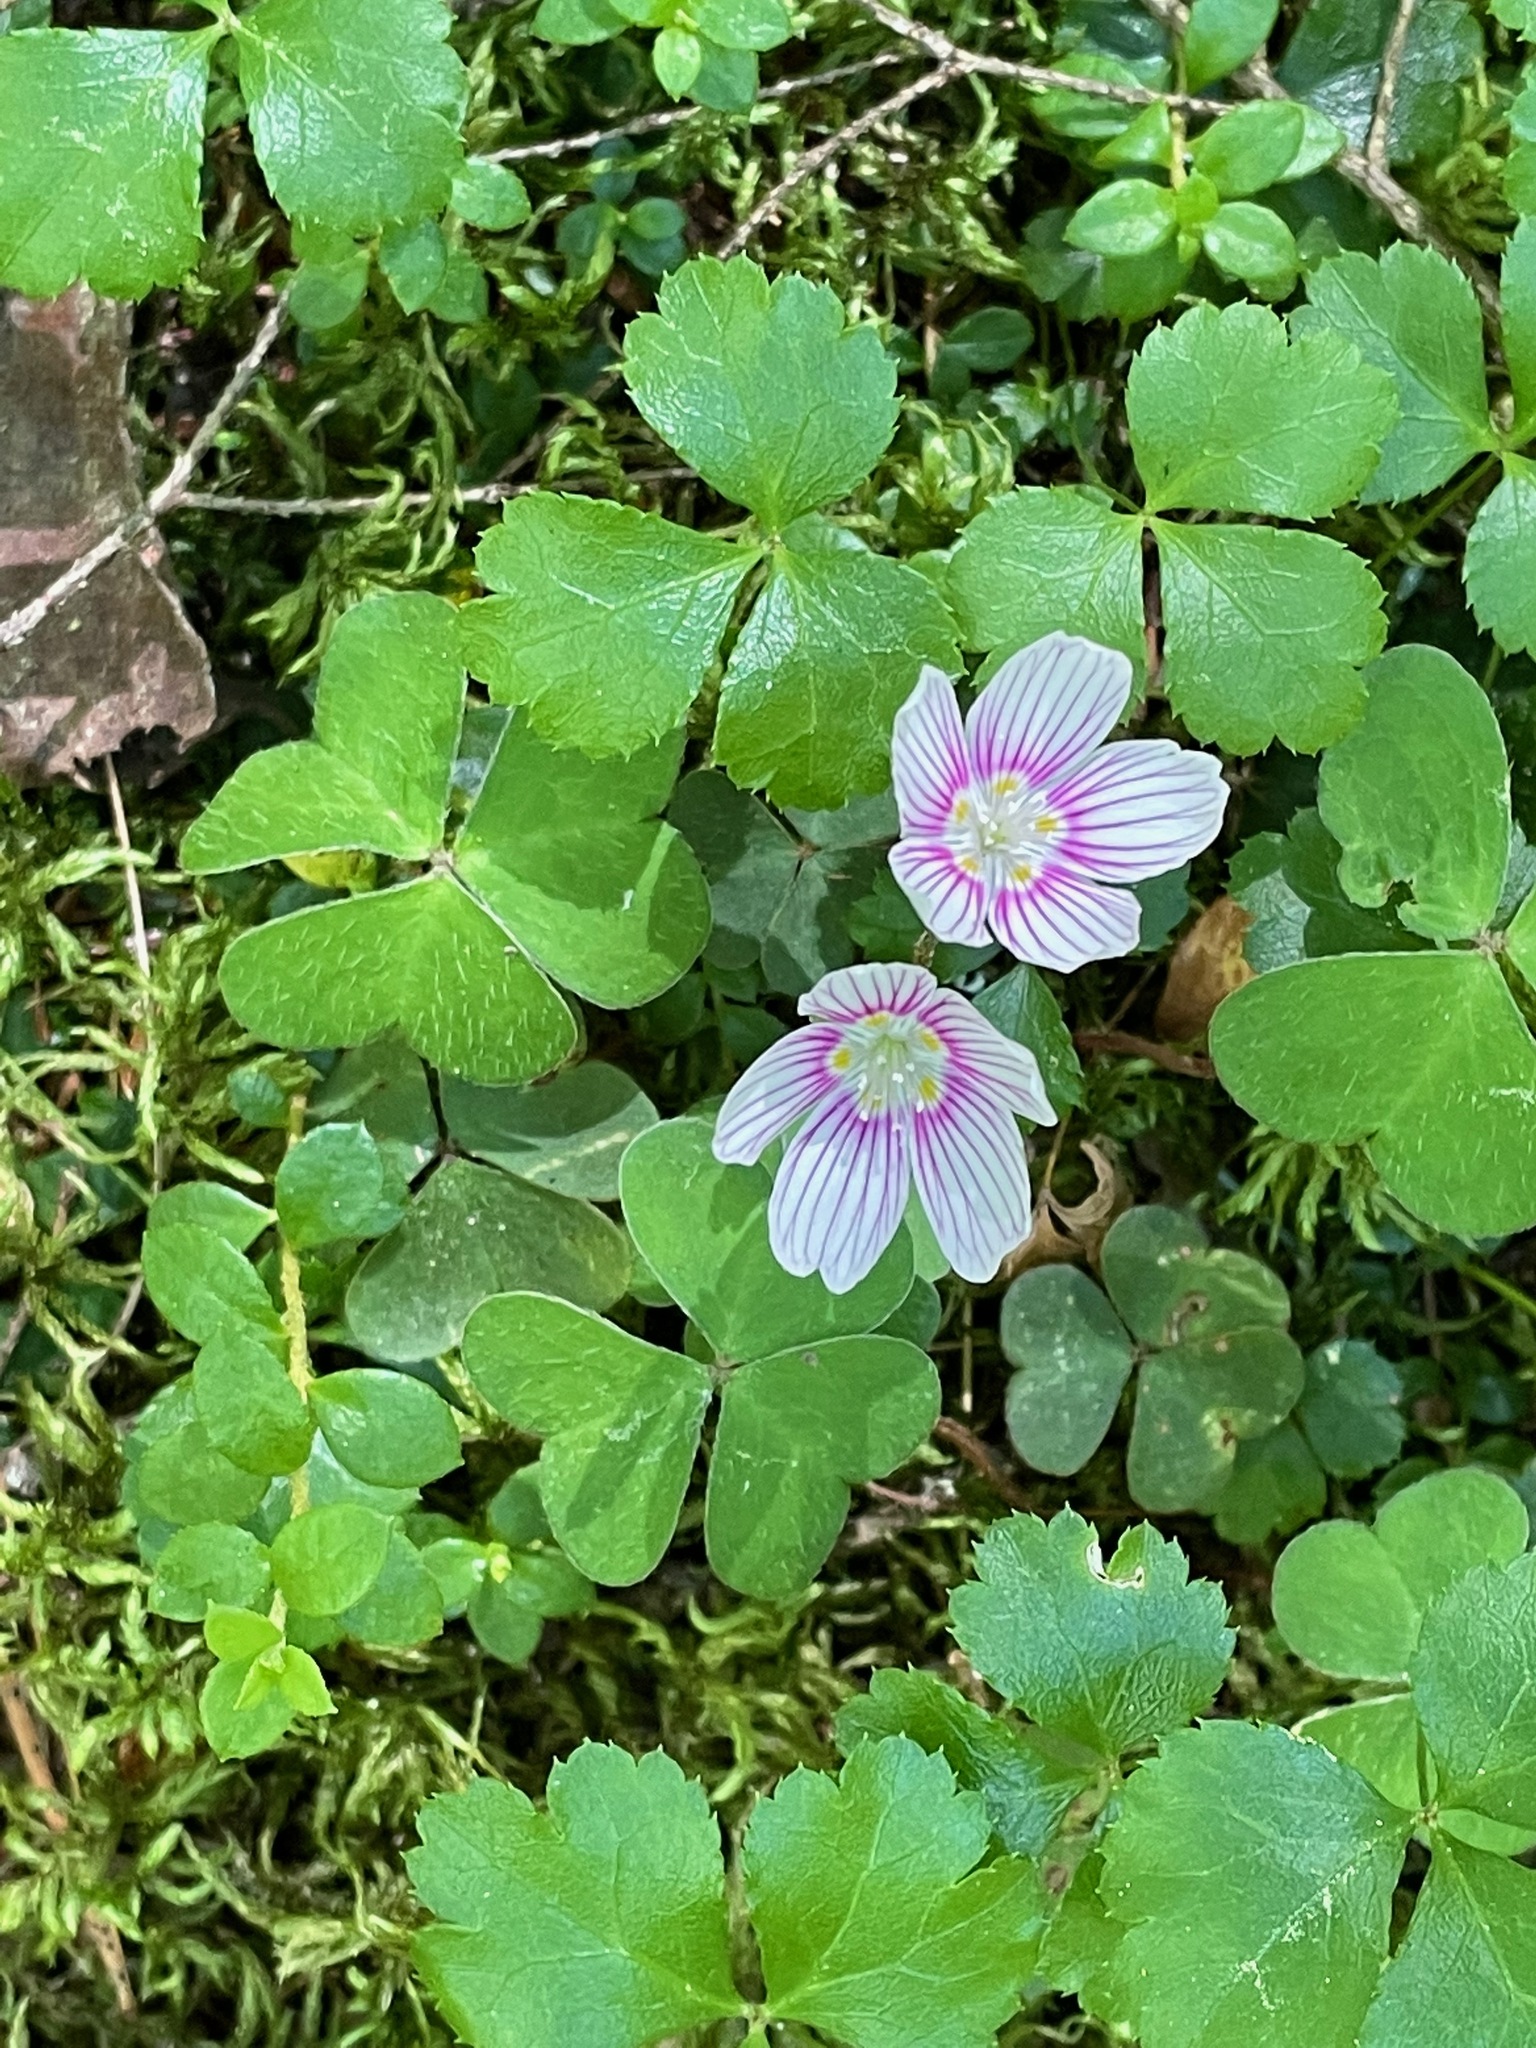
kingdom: Plantae
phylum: Tracheophyta
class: Magnoliopsida
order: Oxalidales
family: Oxalidaceae
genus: Oxalis
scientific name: Oxalis montana
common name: American wood-sorrel
